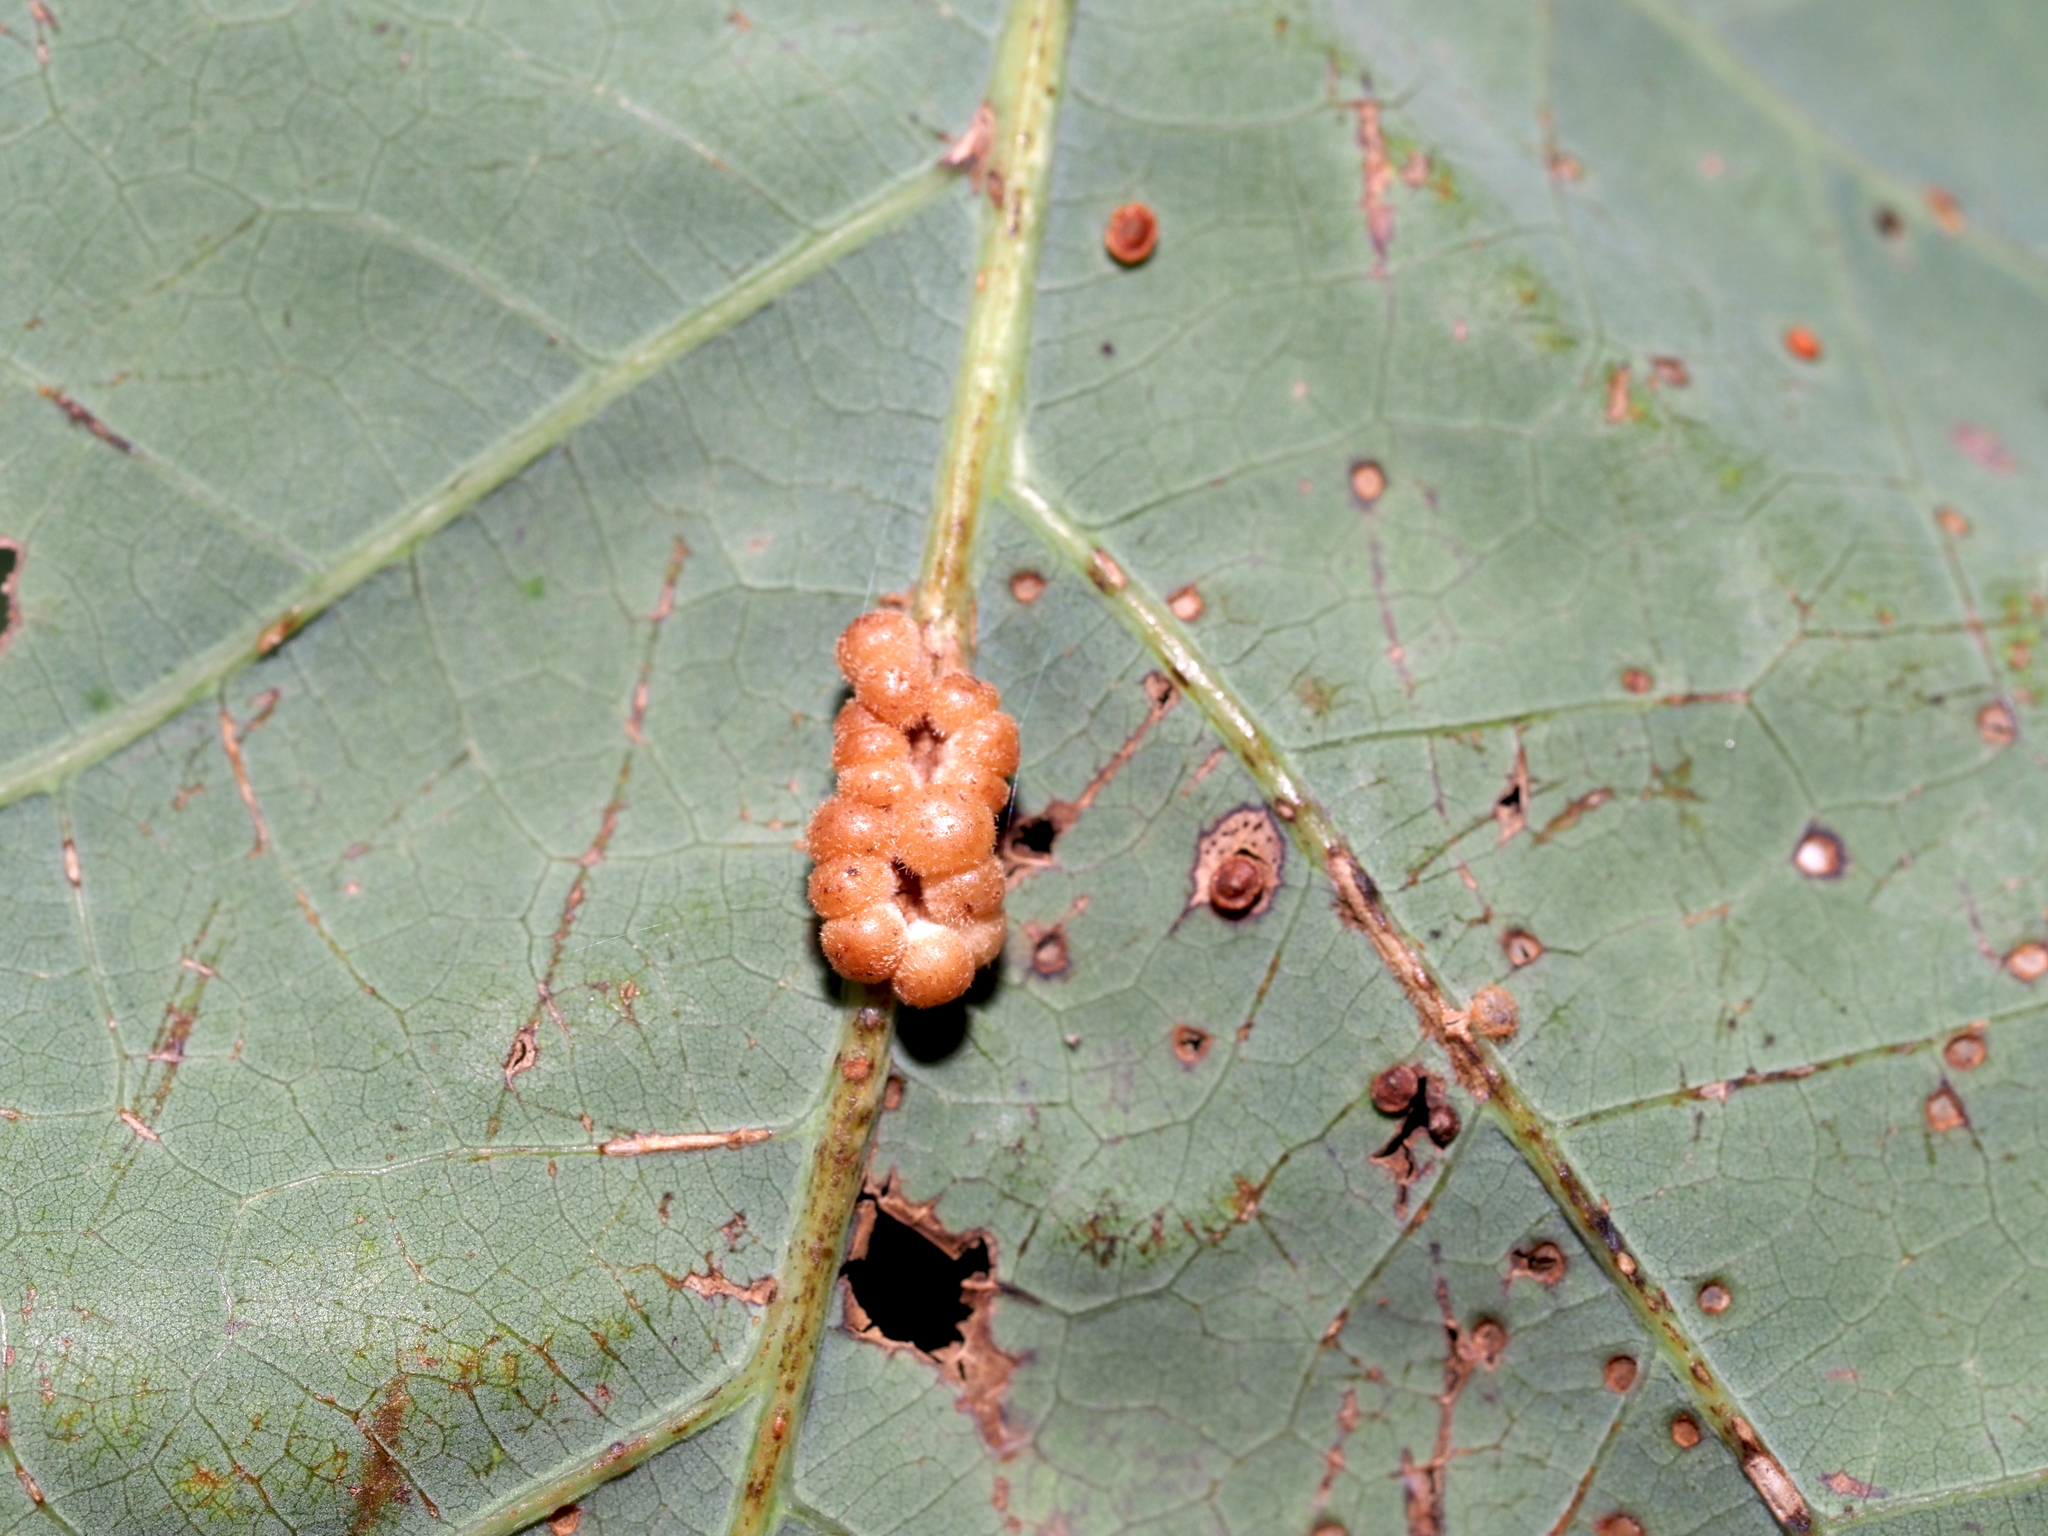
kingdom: Animalia
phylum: Arthropoda
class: Insecta
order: Hymenoptera
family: Cynipidae
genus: Andricus
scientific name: Andricus
